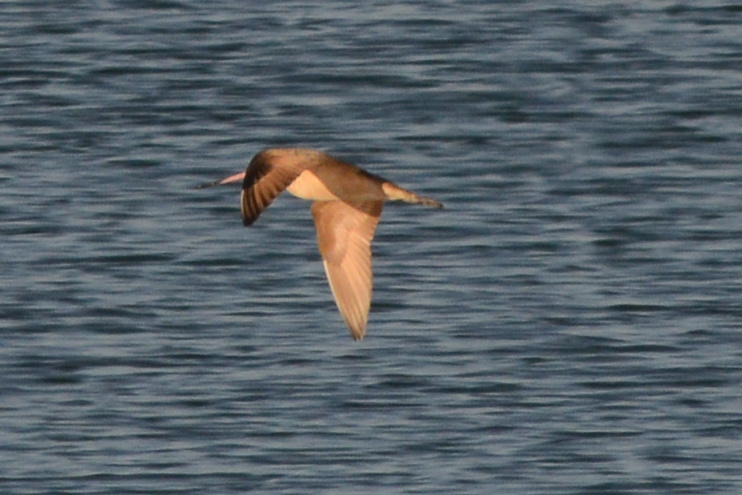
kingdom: Animalia
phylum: Chordata
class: Aves
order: Charadriiformes
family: Scolopacidae
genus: Limosa
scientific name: Limosa fedoa
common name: Marbled godwit
